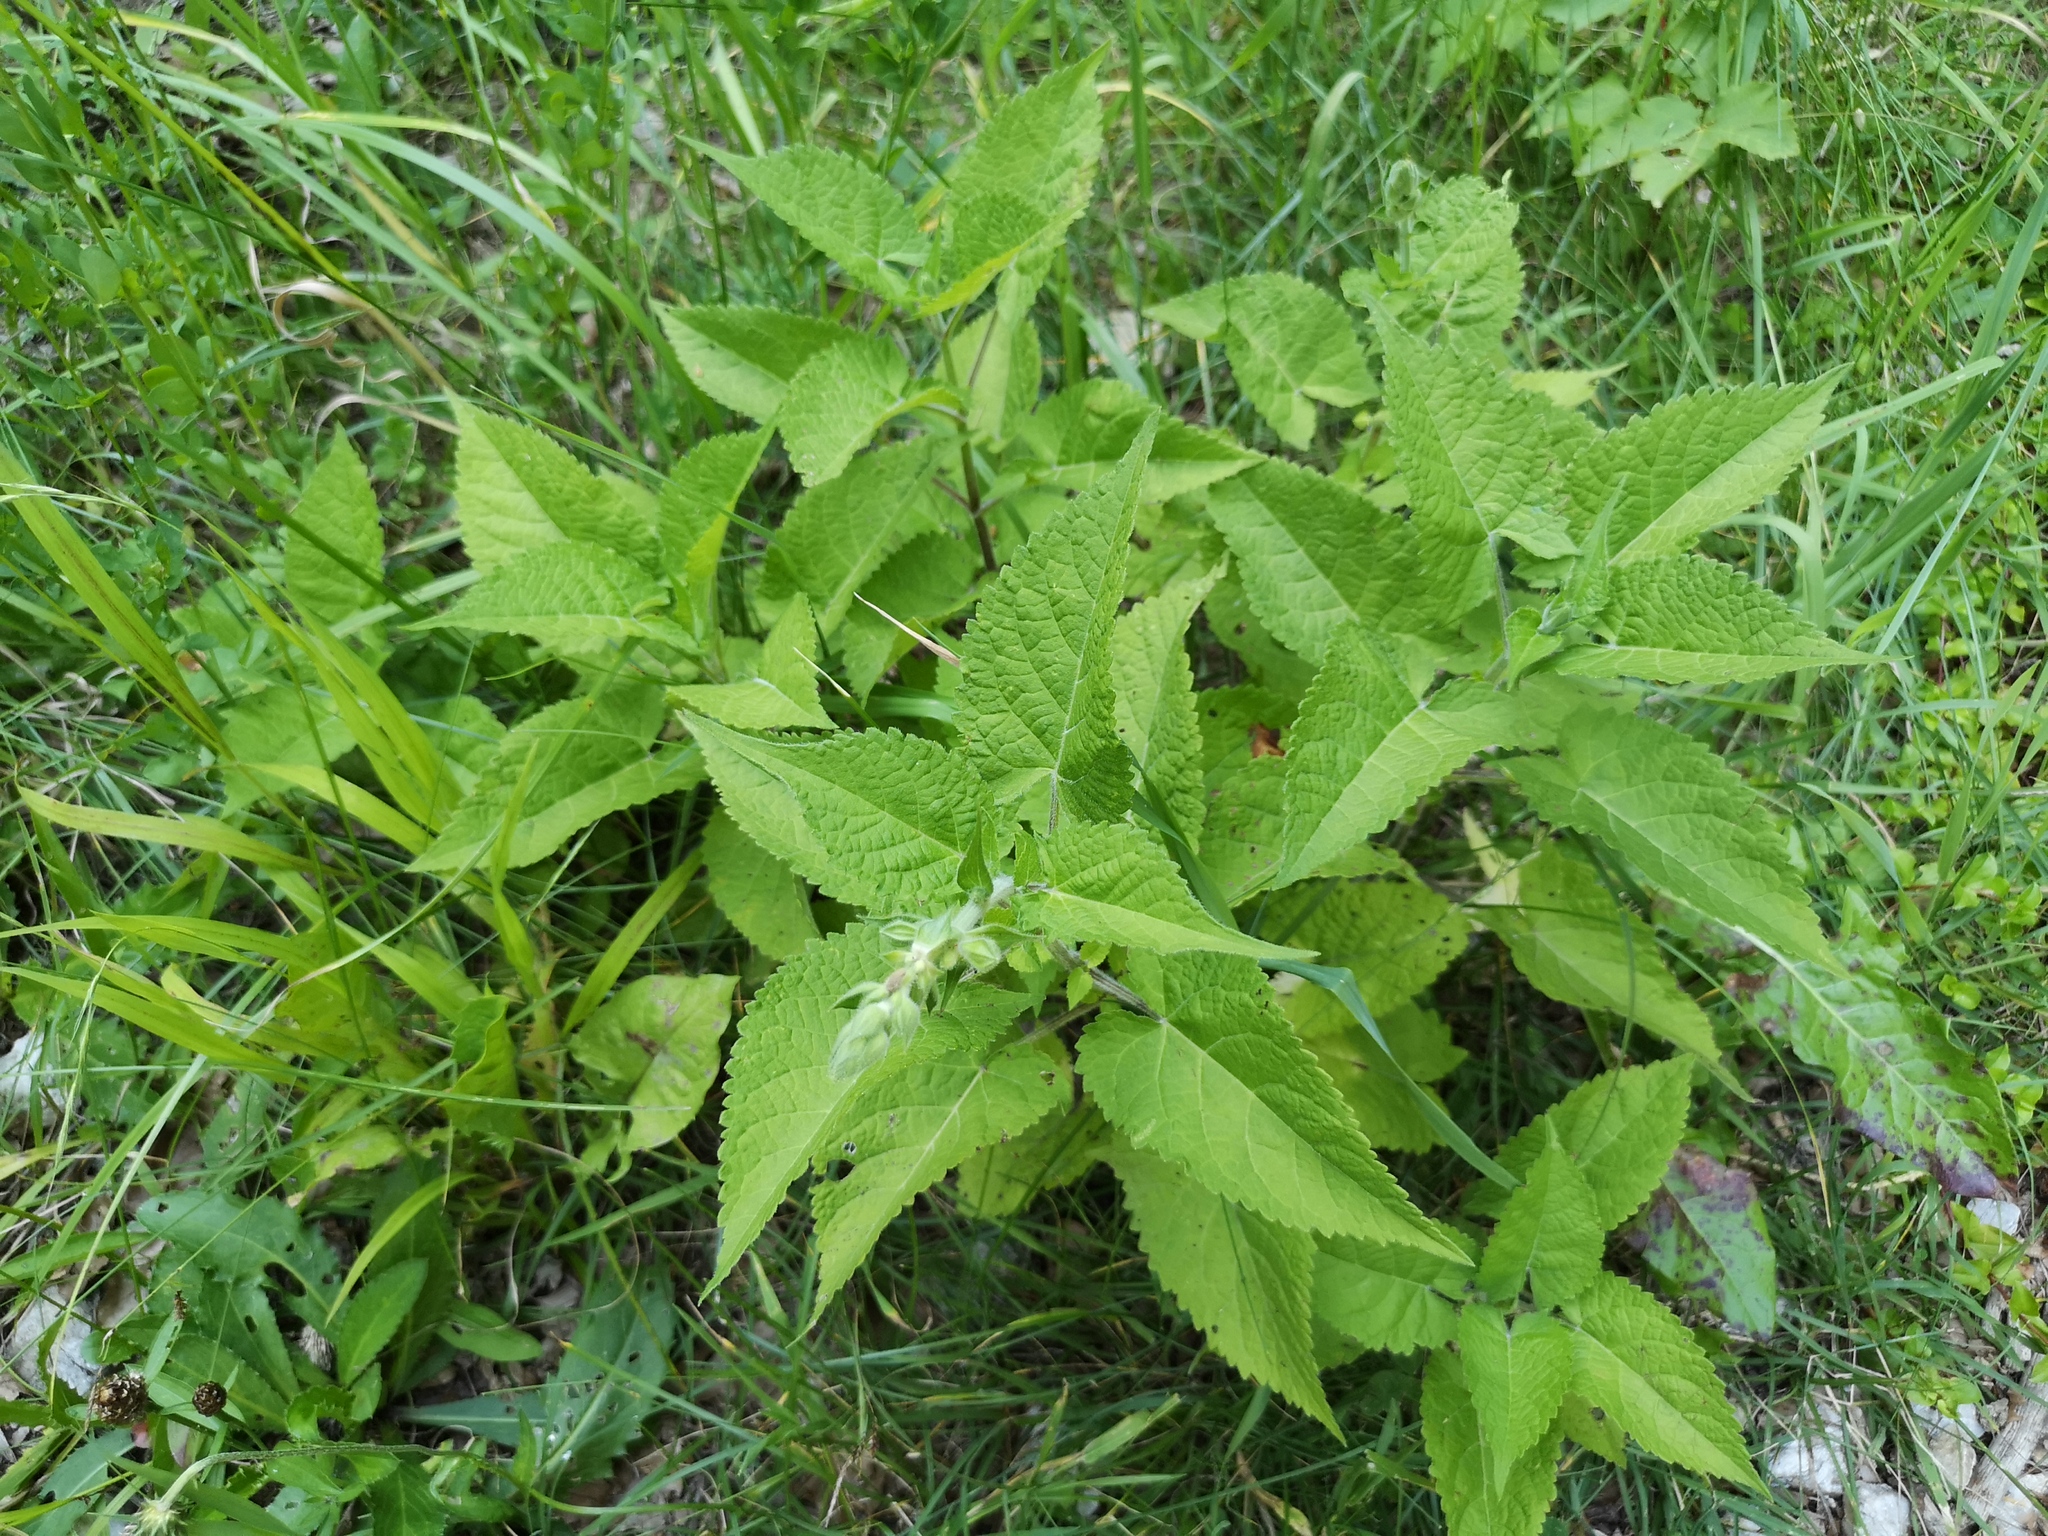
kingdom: Plantae
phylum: Tracheophyta
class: Magnoliopsida
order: Lamiales
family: Lamiaceae
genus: Salvia
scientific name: Salvia glutinosa
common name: Sticky clary
